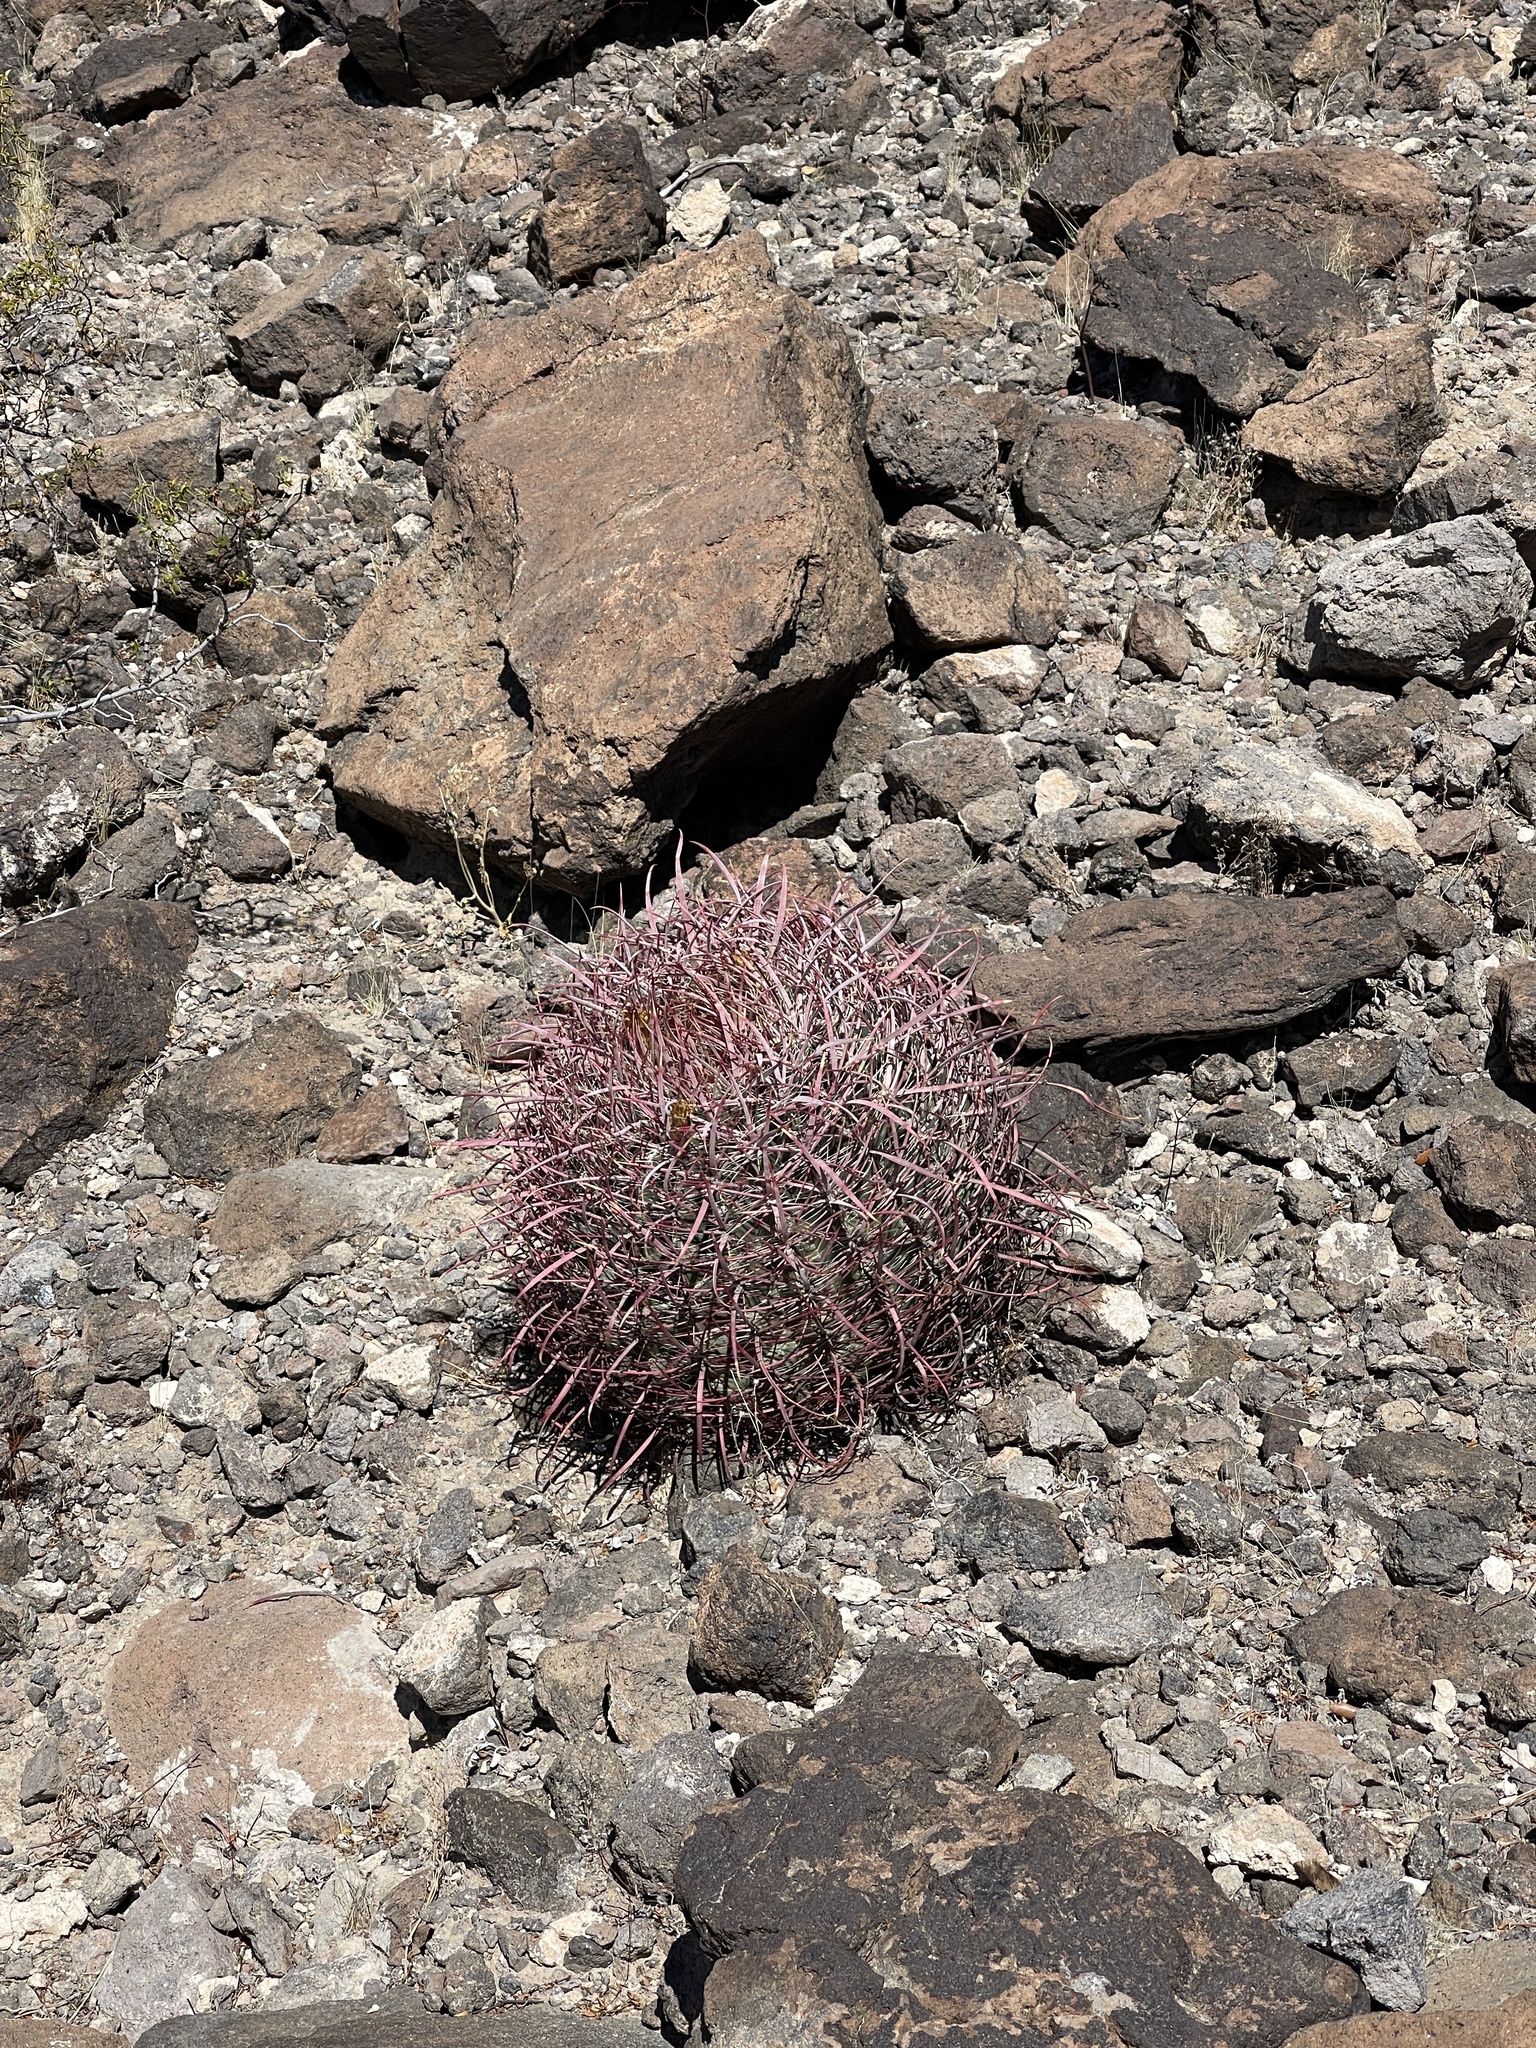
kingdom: Plantae
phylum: Tracheophyta
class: Magnoliopsida
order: Caryophyllales
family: Cactaceae
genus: Ferocactus
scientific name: Ferocactus cylindraceus
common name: California barrel cactus
